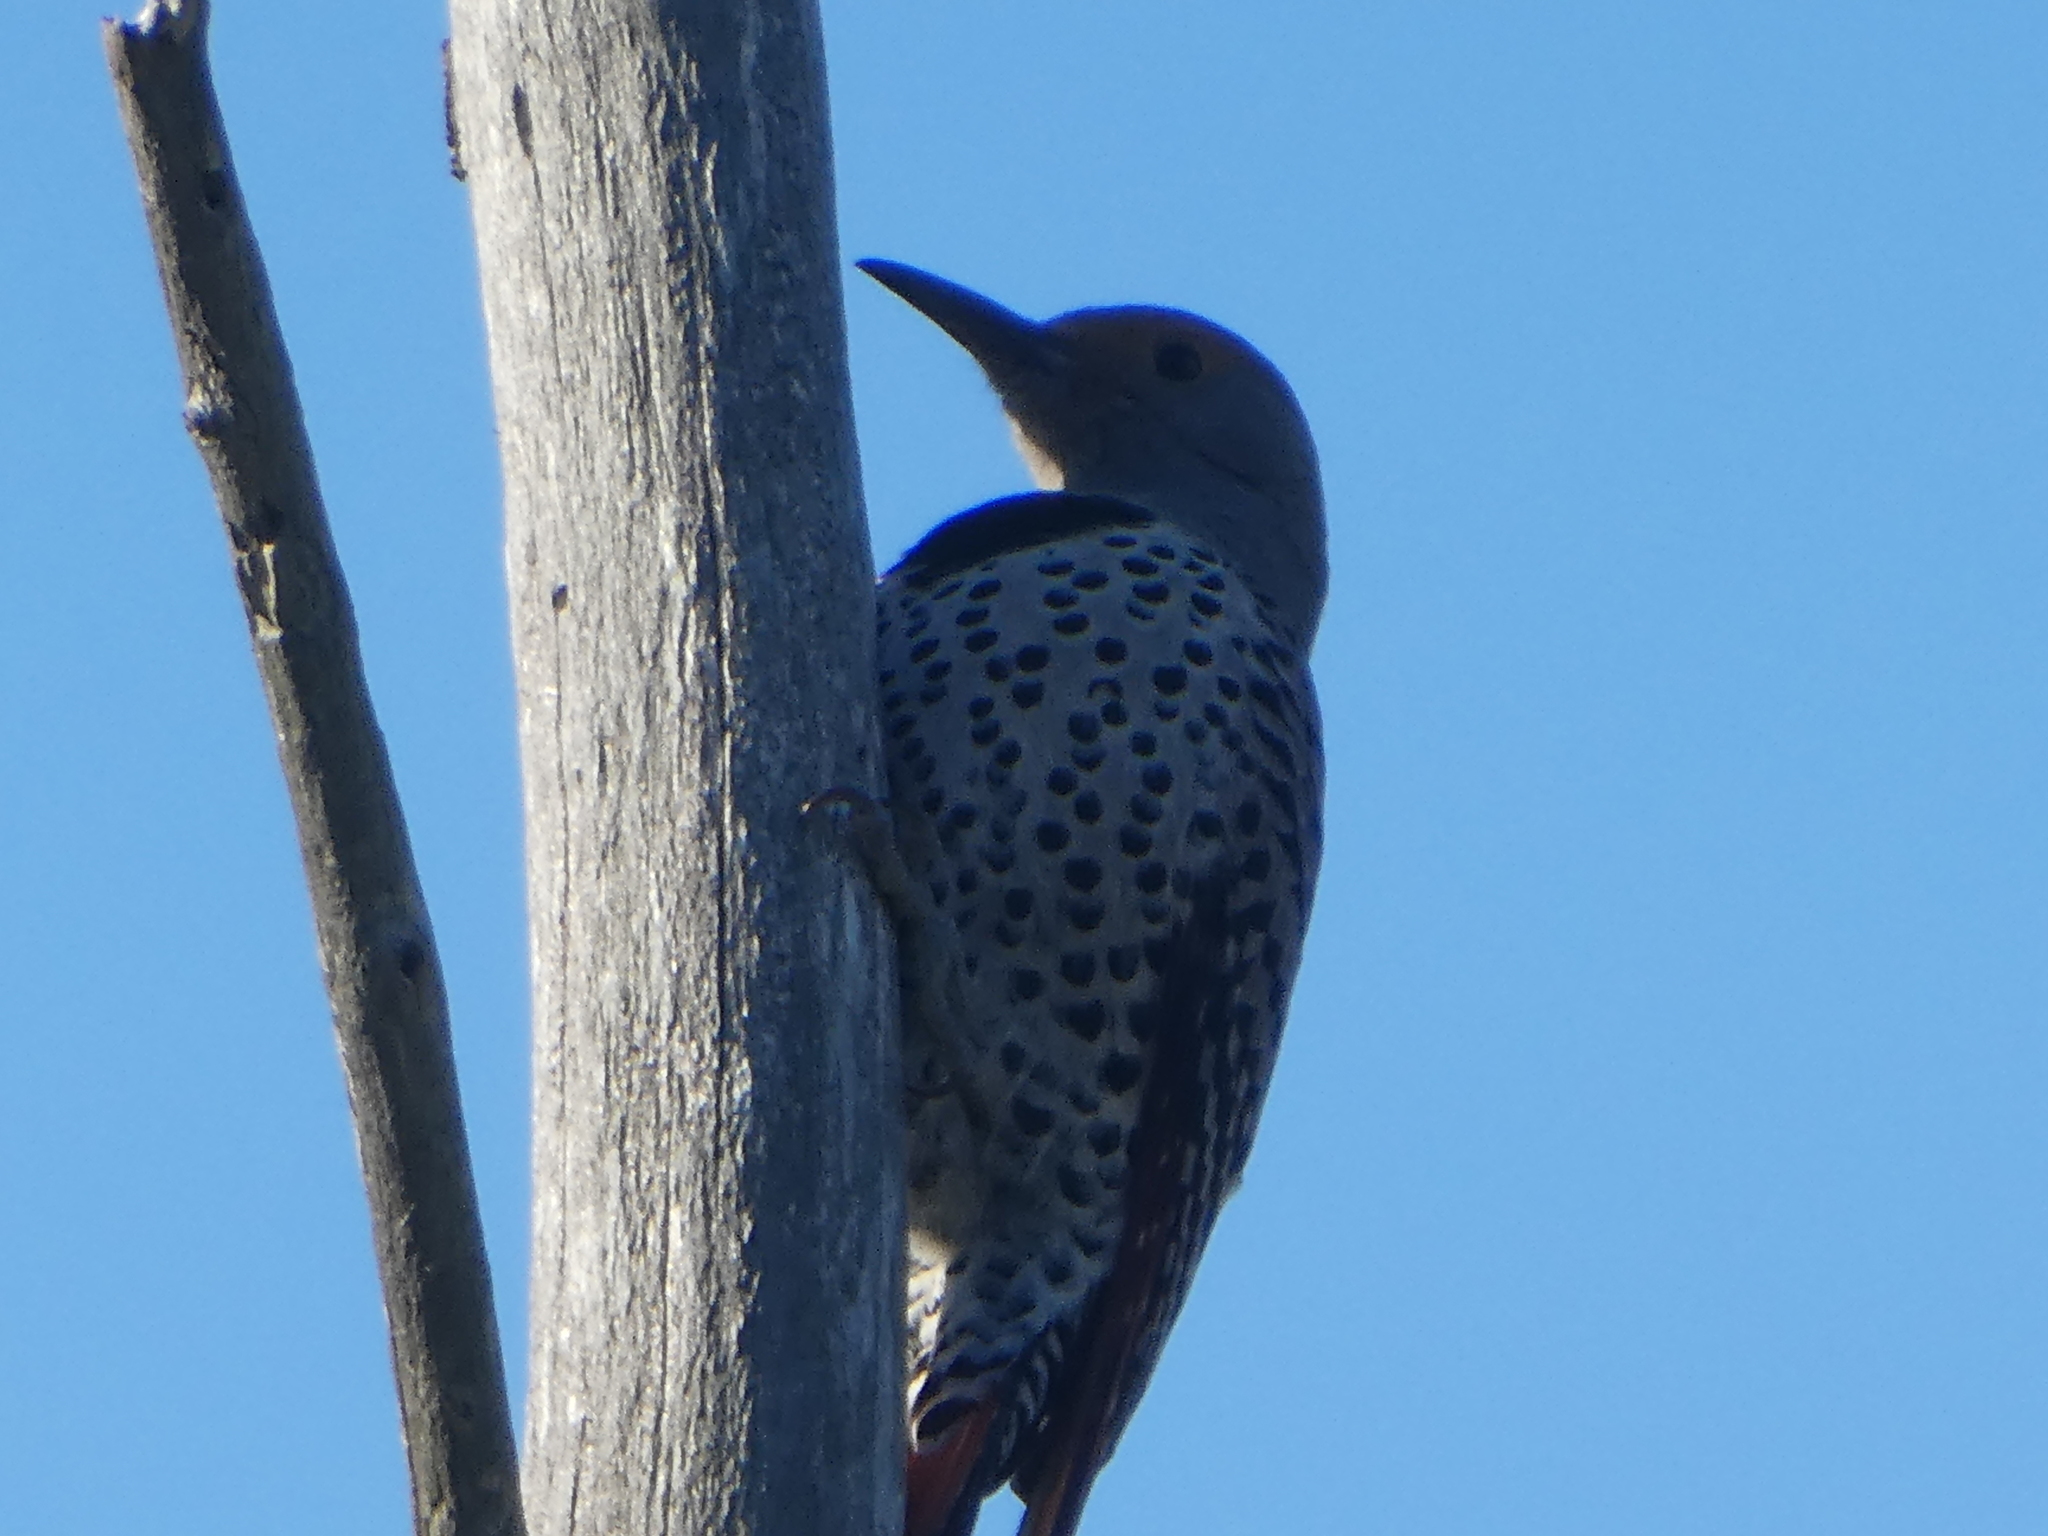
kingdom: Animalia
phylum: Chordata
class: Aves
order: Piciformes
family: Picidae
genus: Colaptes
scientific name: Colaptes auratus
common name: Northern flicker
